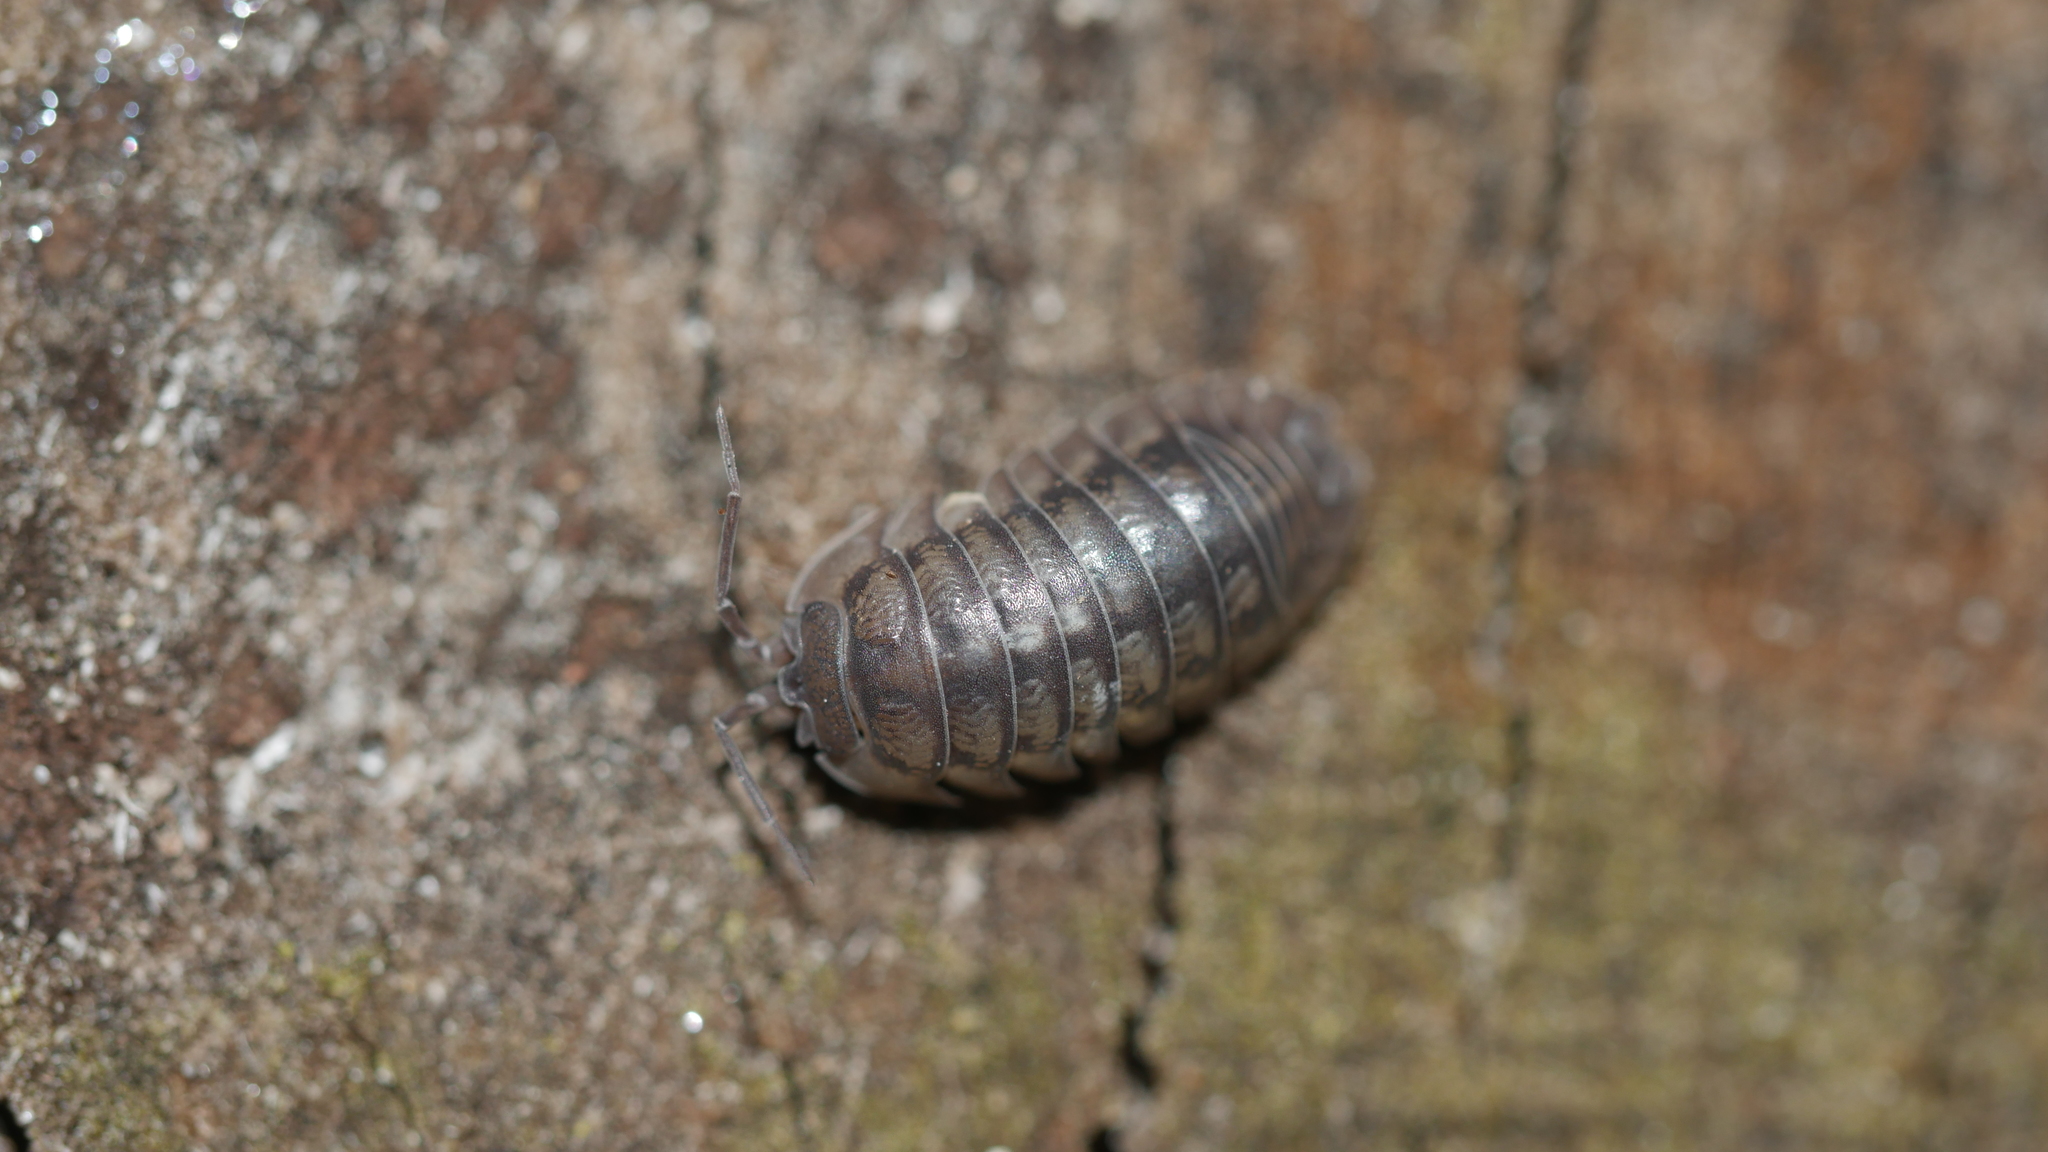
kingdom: Animalia
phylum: Arthropoda
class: Malacostraca
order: Isopoda
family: Armadillidiidae
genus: Armadillidium
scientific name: Armadillidium nasatum
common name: Isopod
